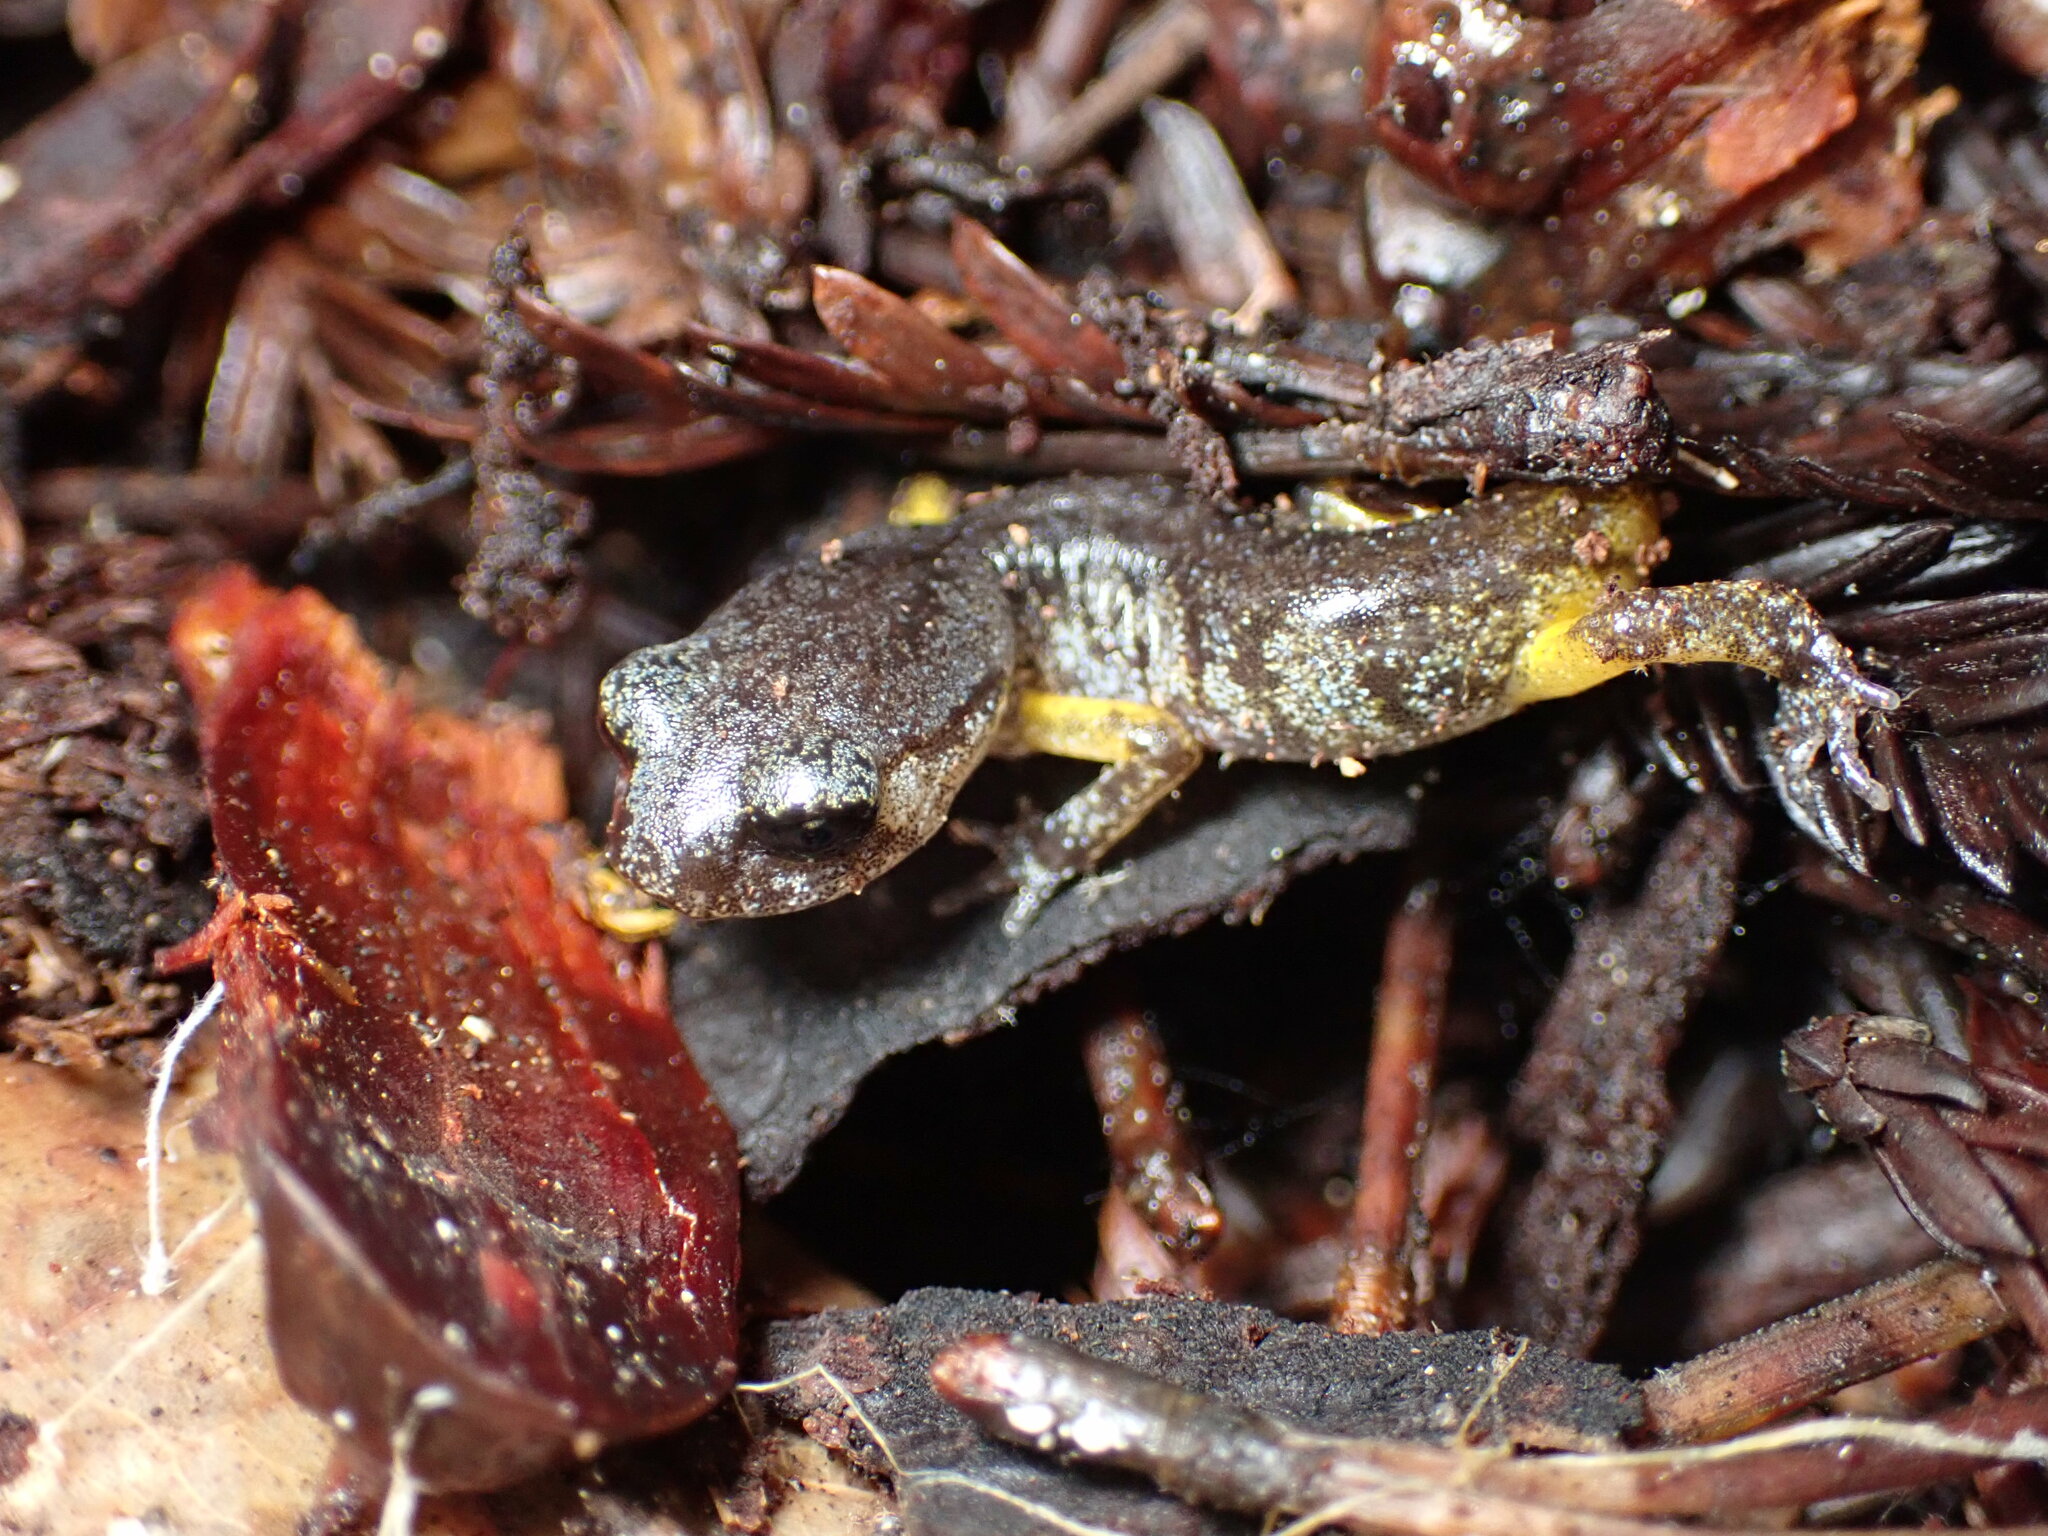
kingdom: Animalia
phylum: Chordata
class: Amphibia
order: Caudata
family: Plethodontidae
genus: Ensatina
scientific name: Ensatina eschscholtzii
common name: Ensatina
